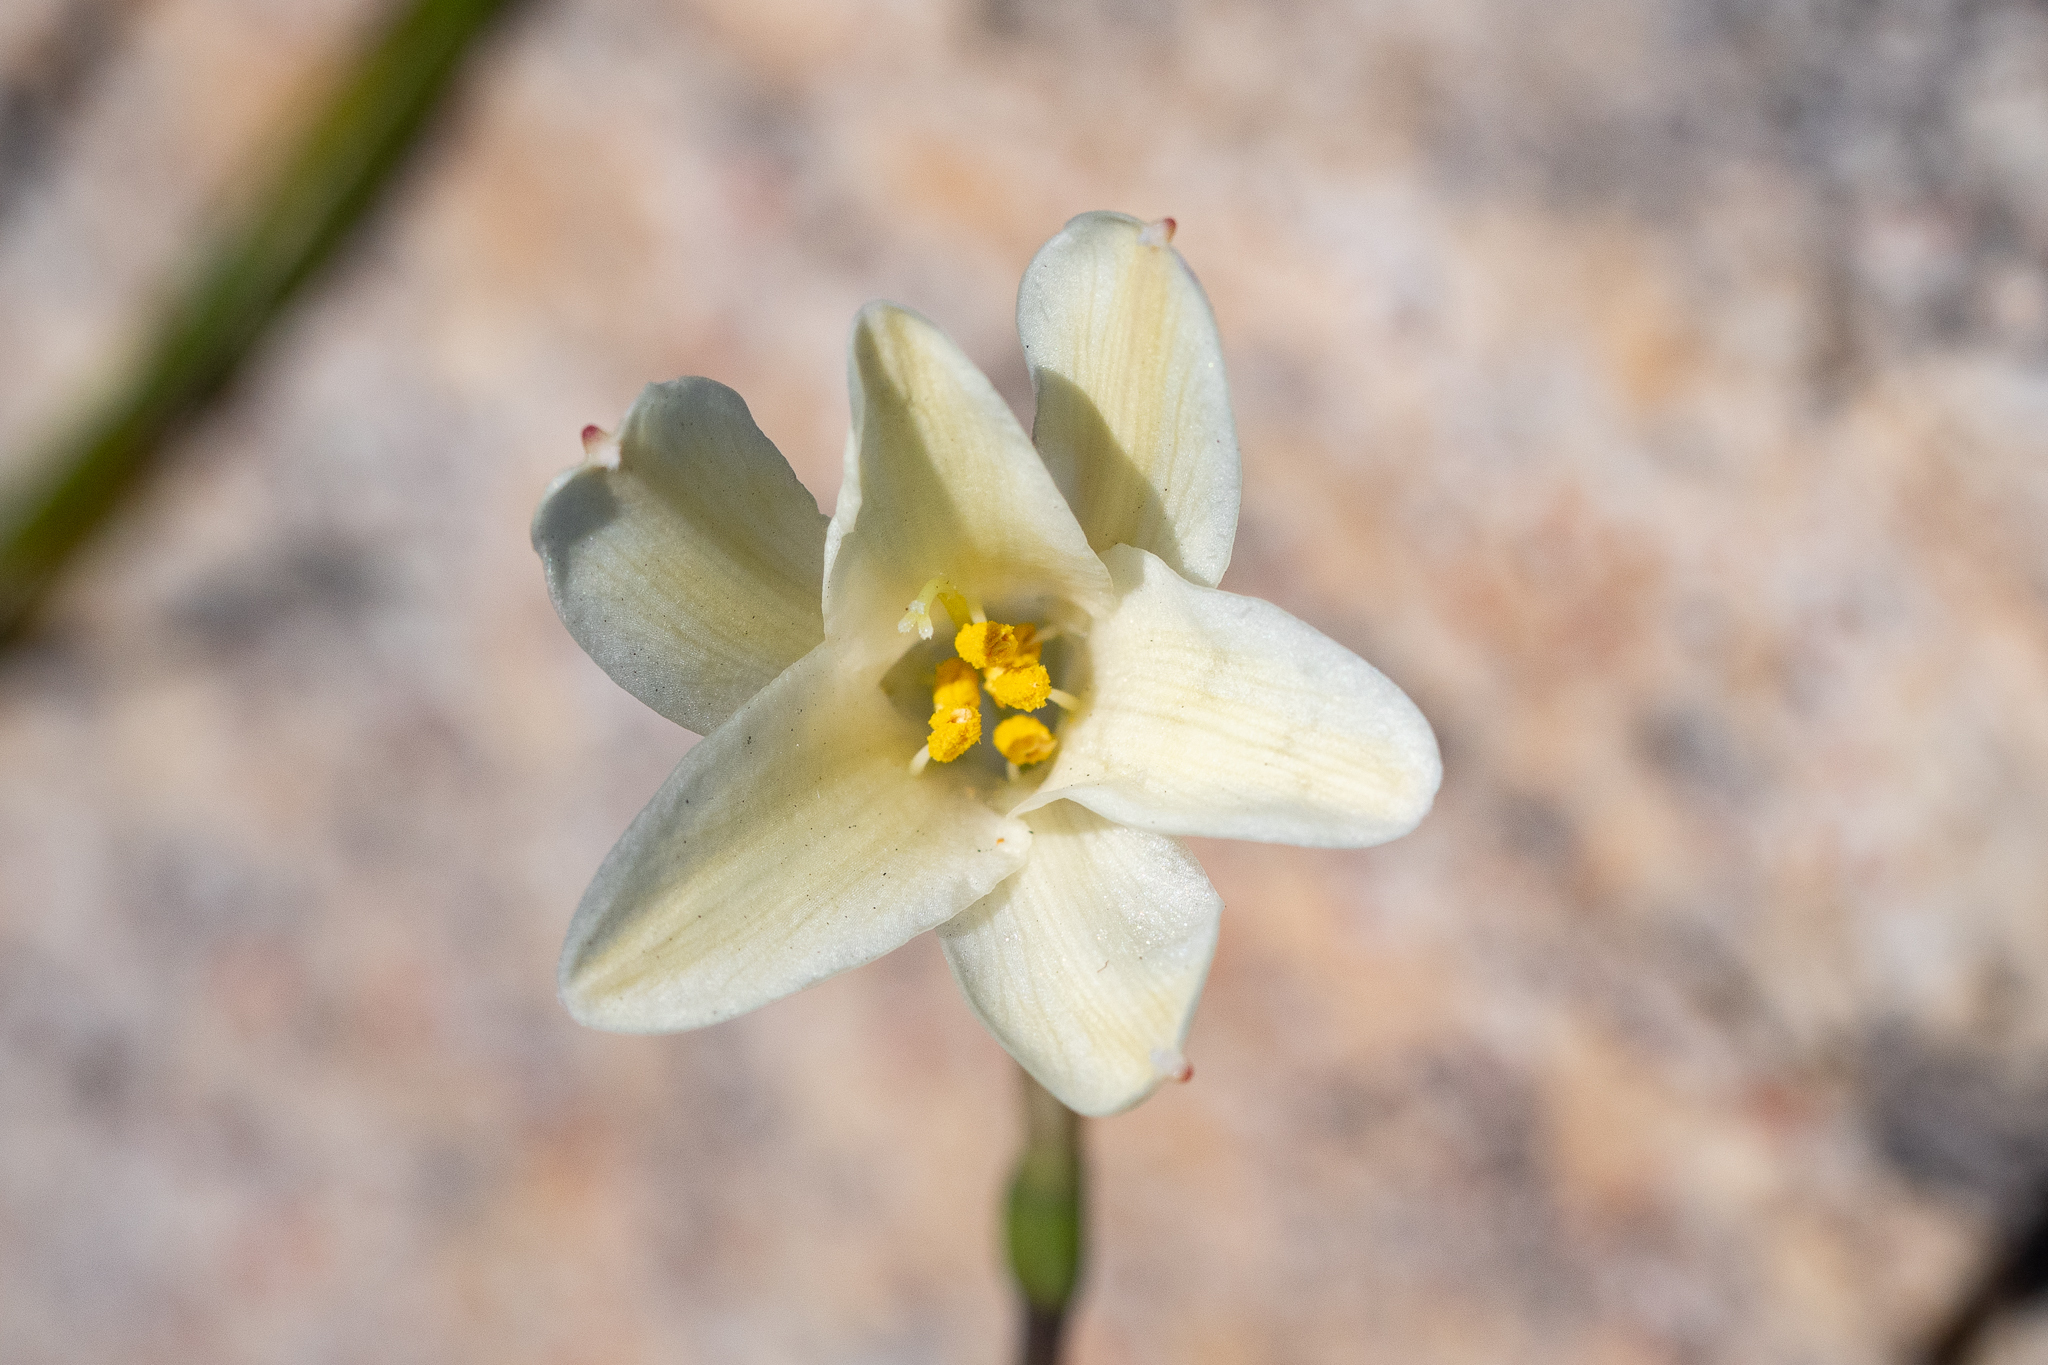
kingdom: Plantae
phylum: Tracheophyta
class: Liliopsida
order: Asparagales
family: Amaryllidaceae
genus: Cyrtanthus
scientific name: Cyrtanthus leucanthus
